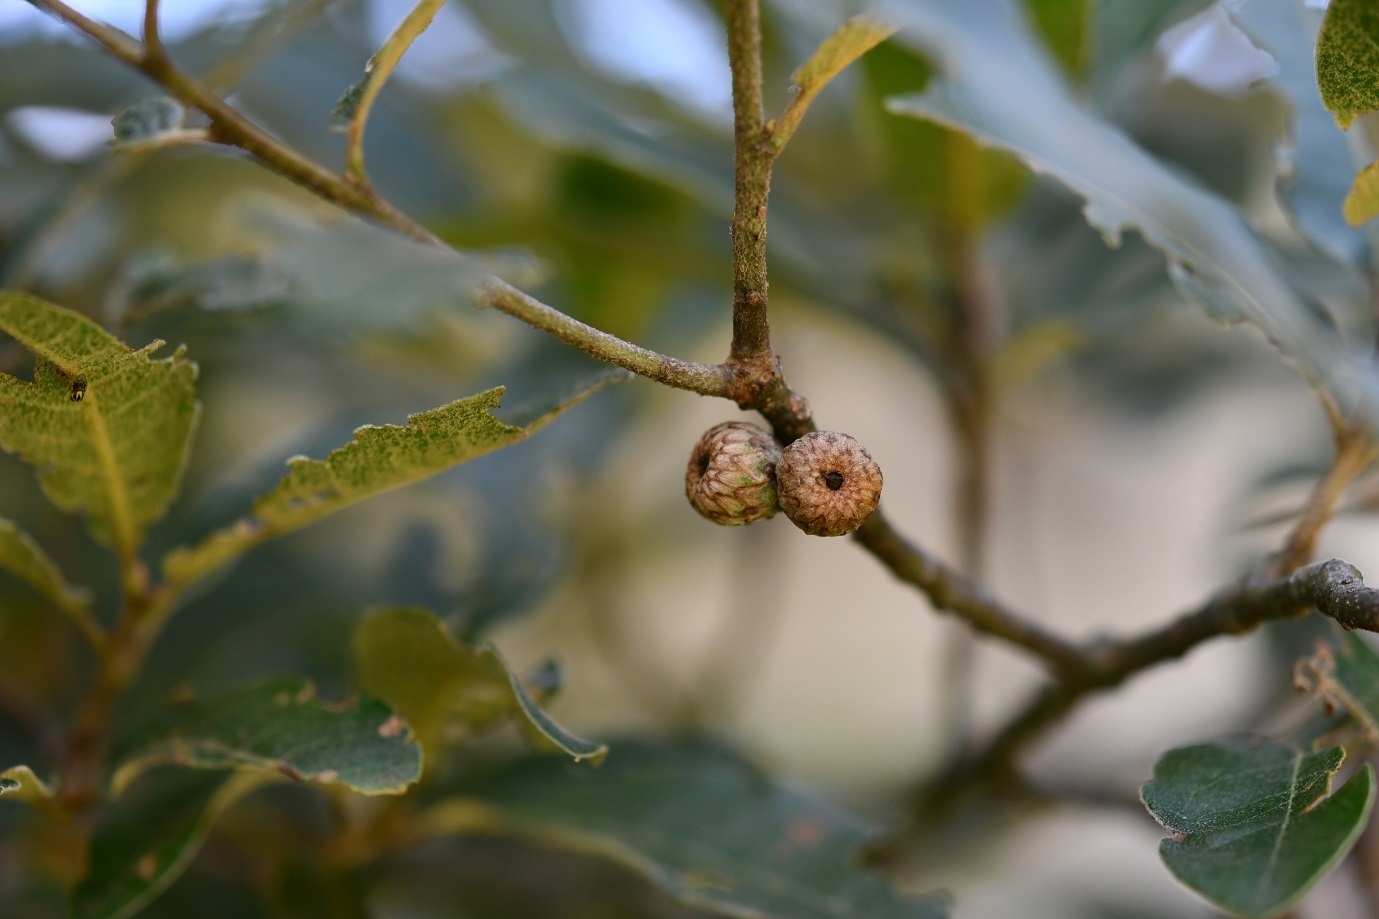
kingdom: Plantae
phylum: Tracheophyta
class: Magnoliopsida
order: Fagales
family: Fagaceae
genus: Quercus
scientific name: Quercus crispipilis
